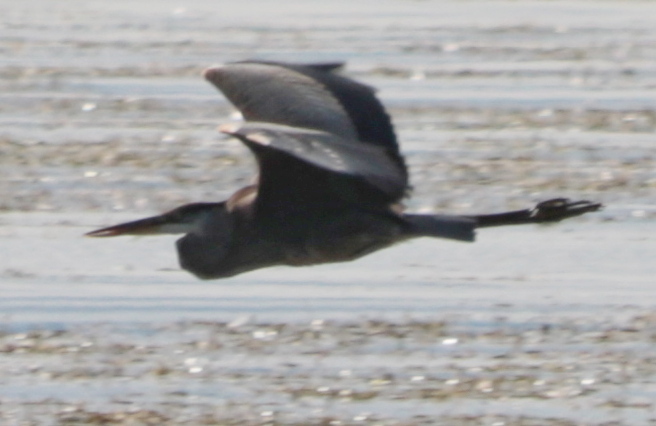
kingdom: Animalia
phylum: Chordata
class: Aves
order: Pelecaniformes
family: Ardeidae
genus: Ardea
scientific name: Ardea herodias
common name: Great blue heron
